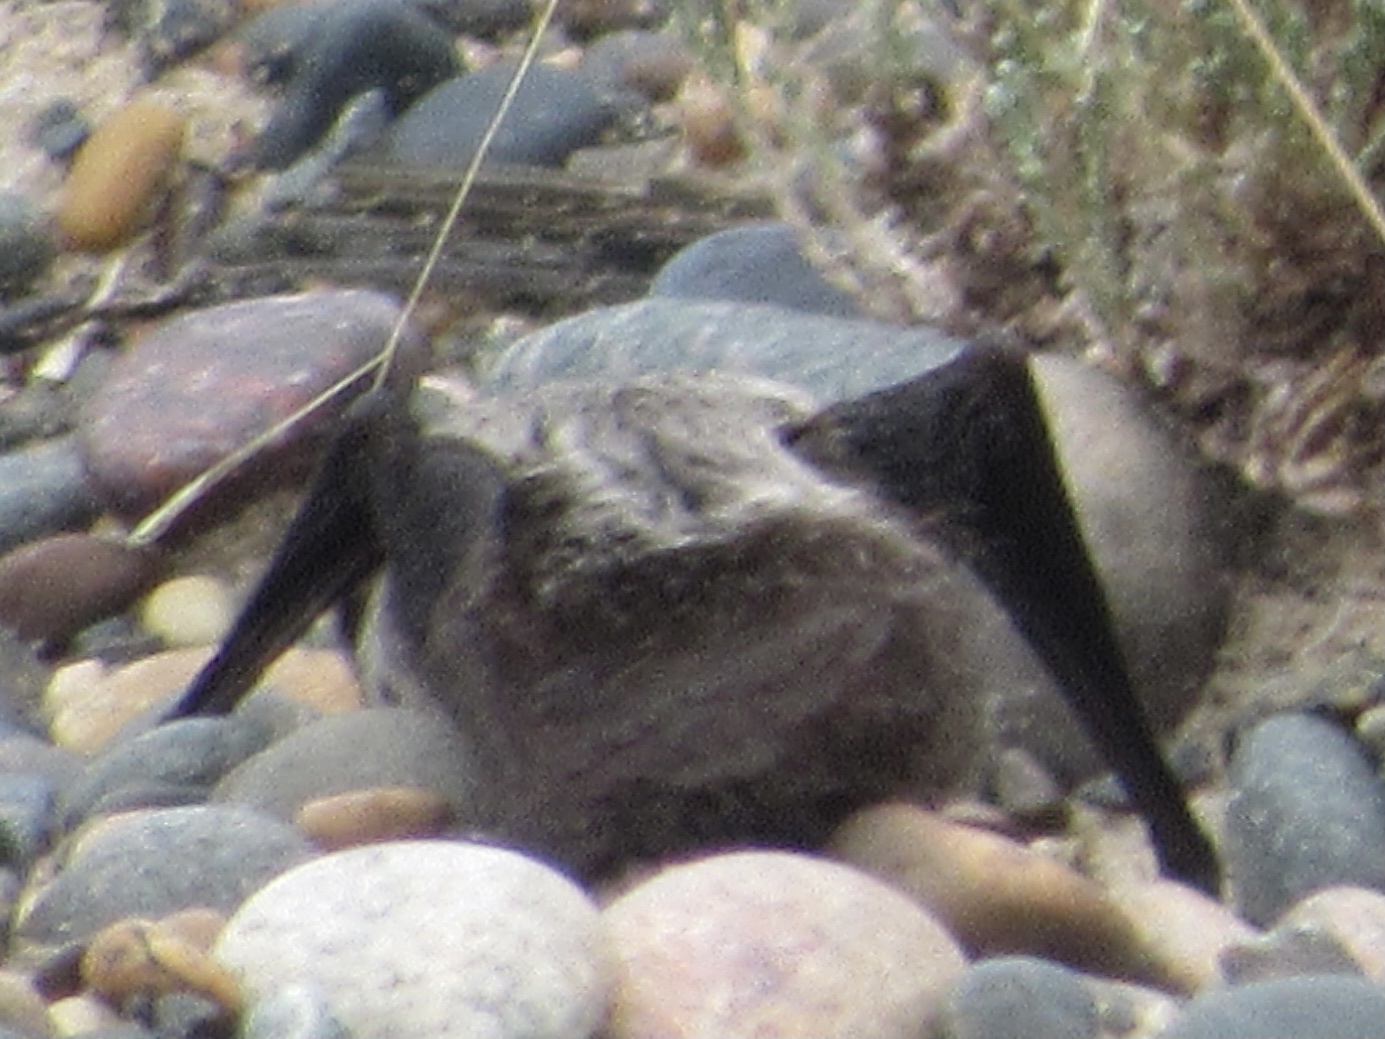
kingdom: Animalia
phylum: Chordata
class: Mammalia
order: Chiroptera
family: Vespertilionidae
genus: Lasionycteris
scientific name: Lasionycteris noctivagans
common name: Silver-haired bat
